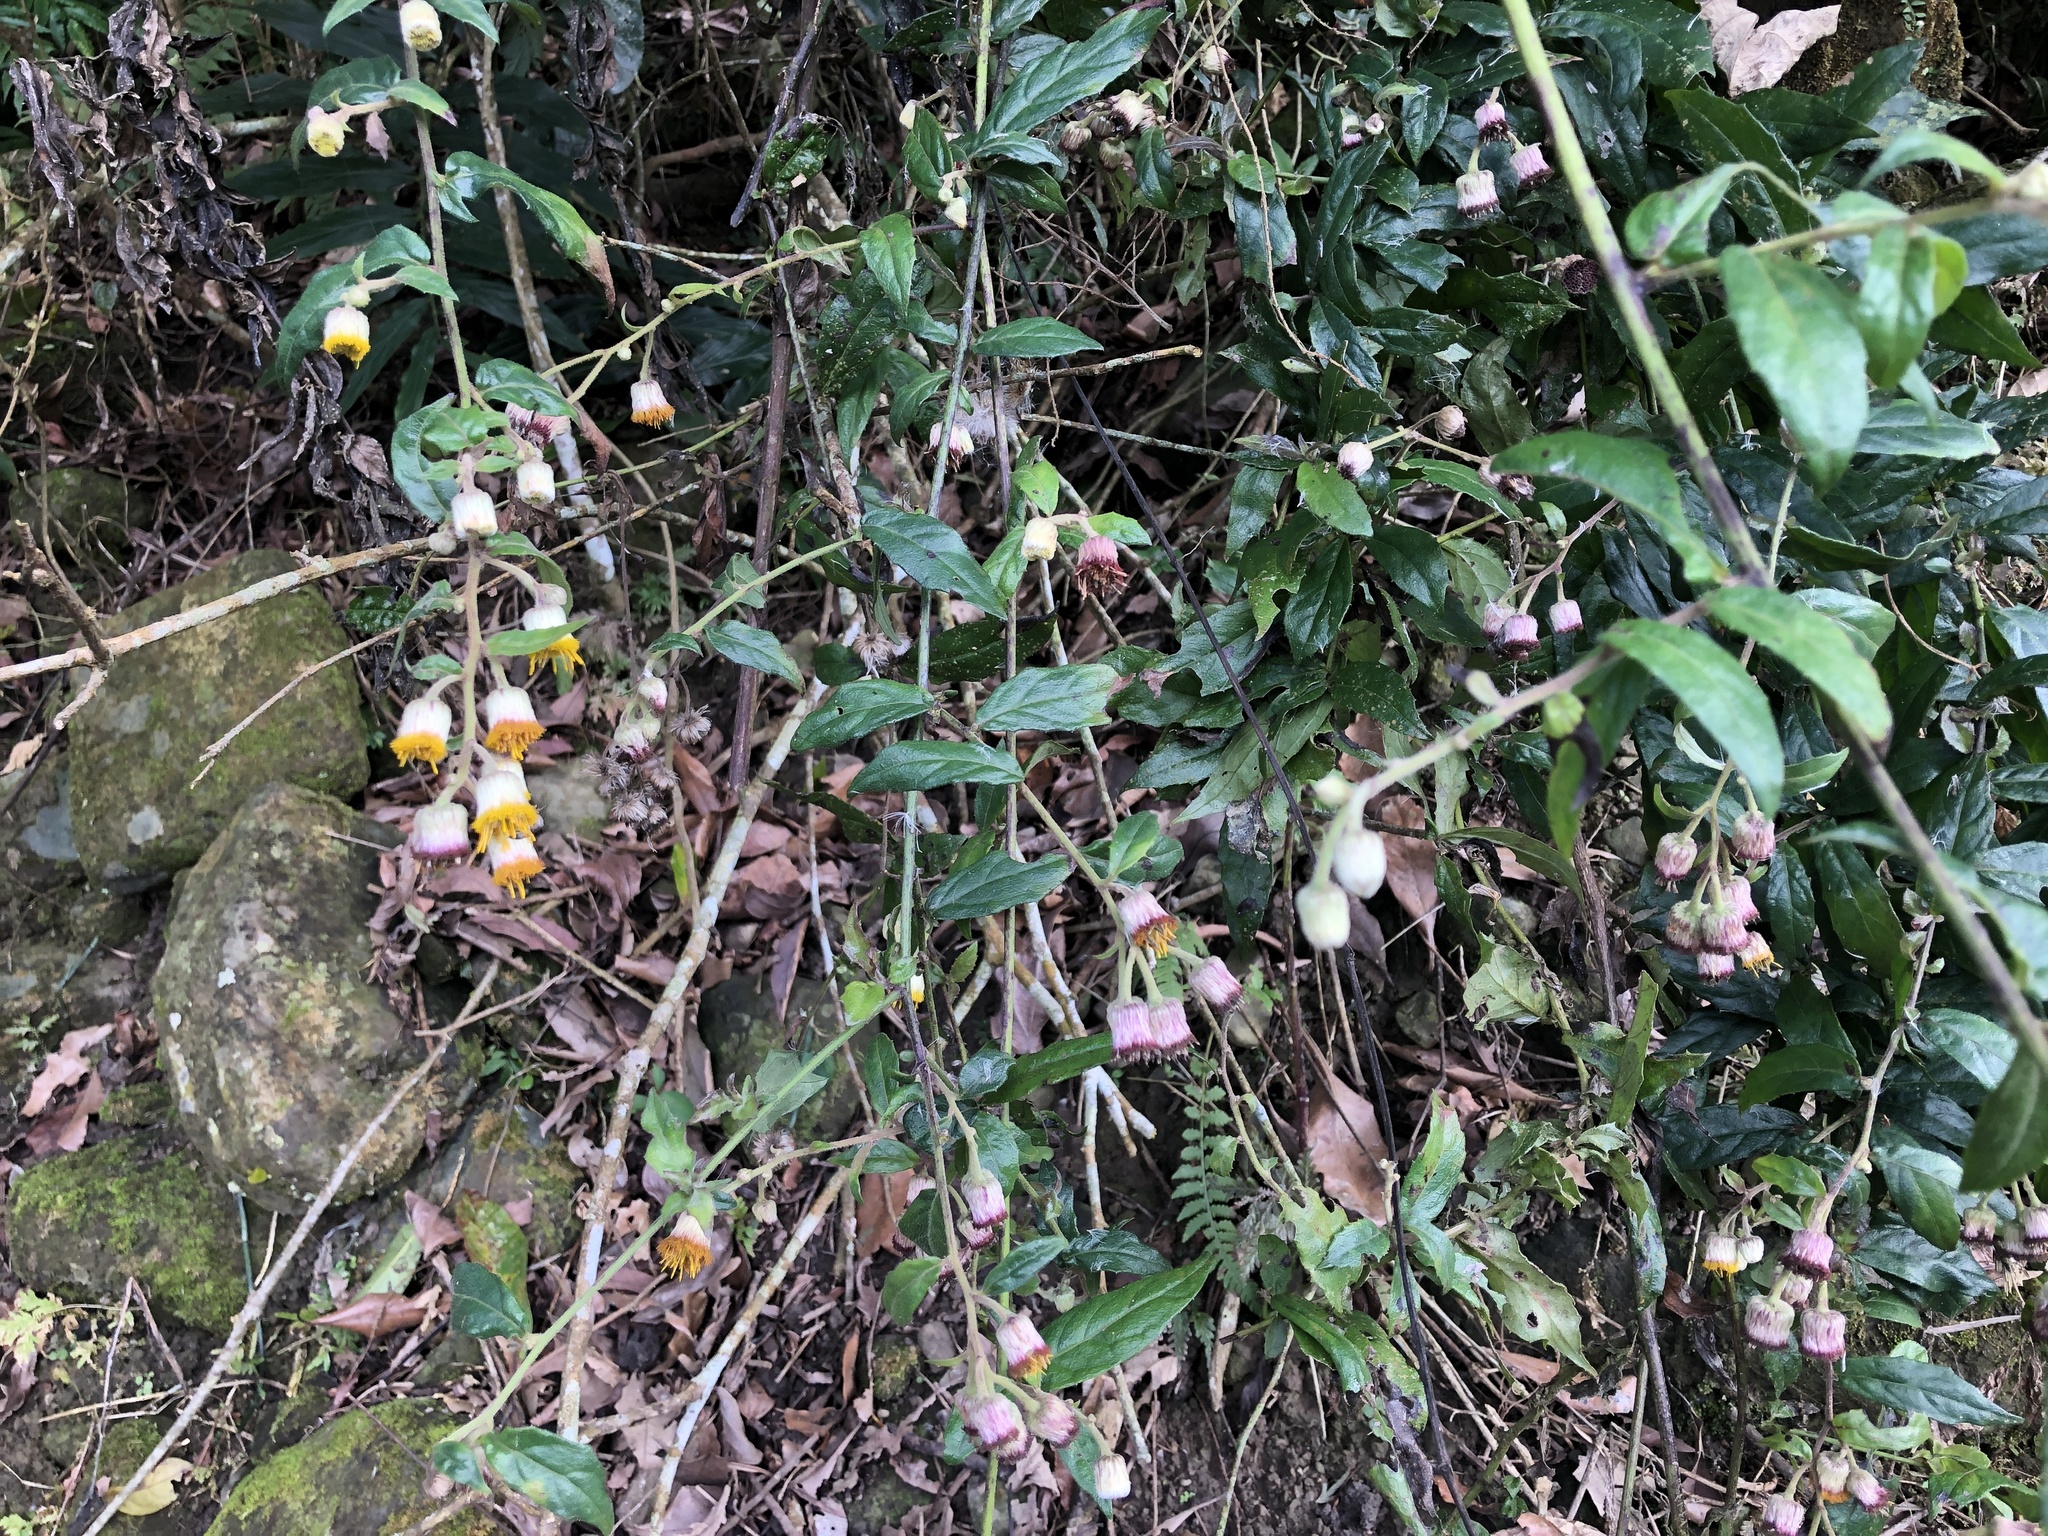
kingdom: Plantae
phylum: Tracheophyta
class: Magnoliopsida
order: Asterales
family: Asteraceae
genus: Blumea
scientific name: Blumea megacephala
